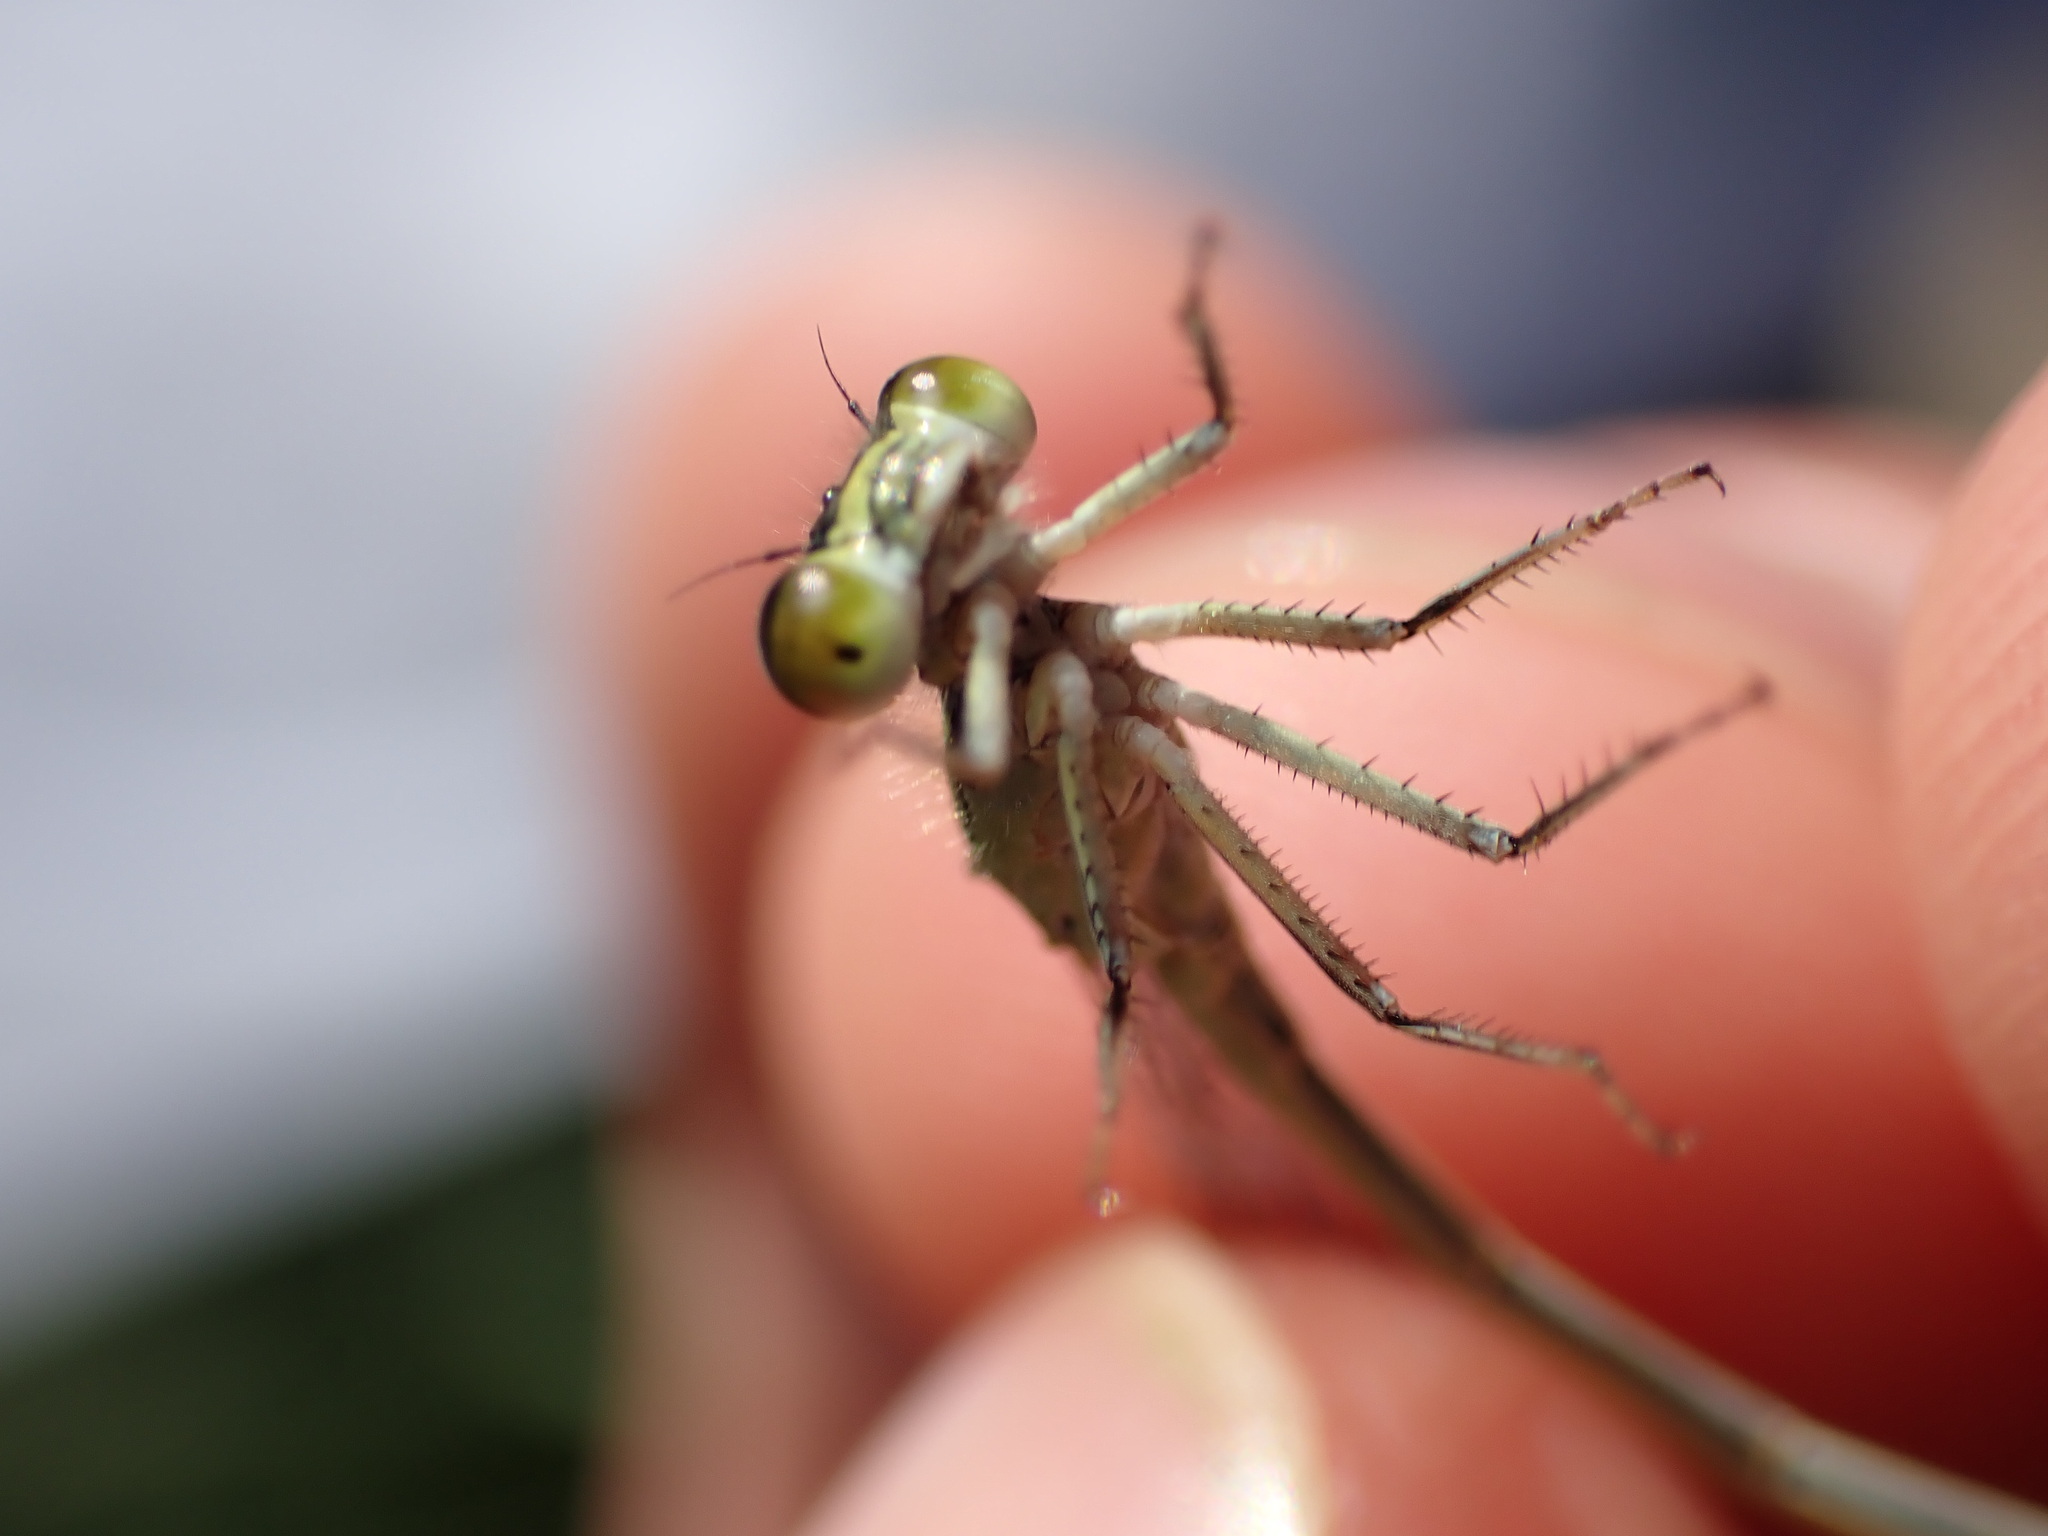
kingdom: Animalia
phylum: Arthropoda
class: Insecta
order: Odonata
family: Coenagrionidae
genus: Ischnura
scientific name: Ischnura elegans
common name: Blue-tailed damselfly
